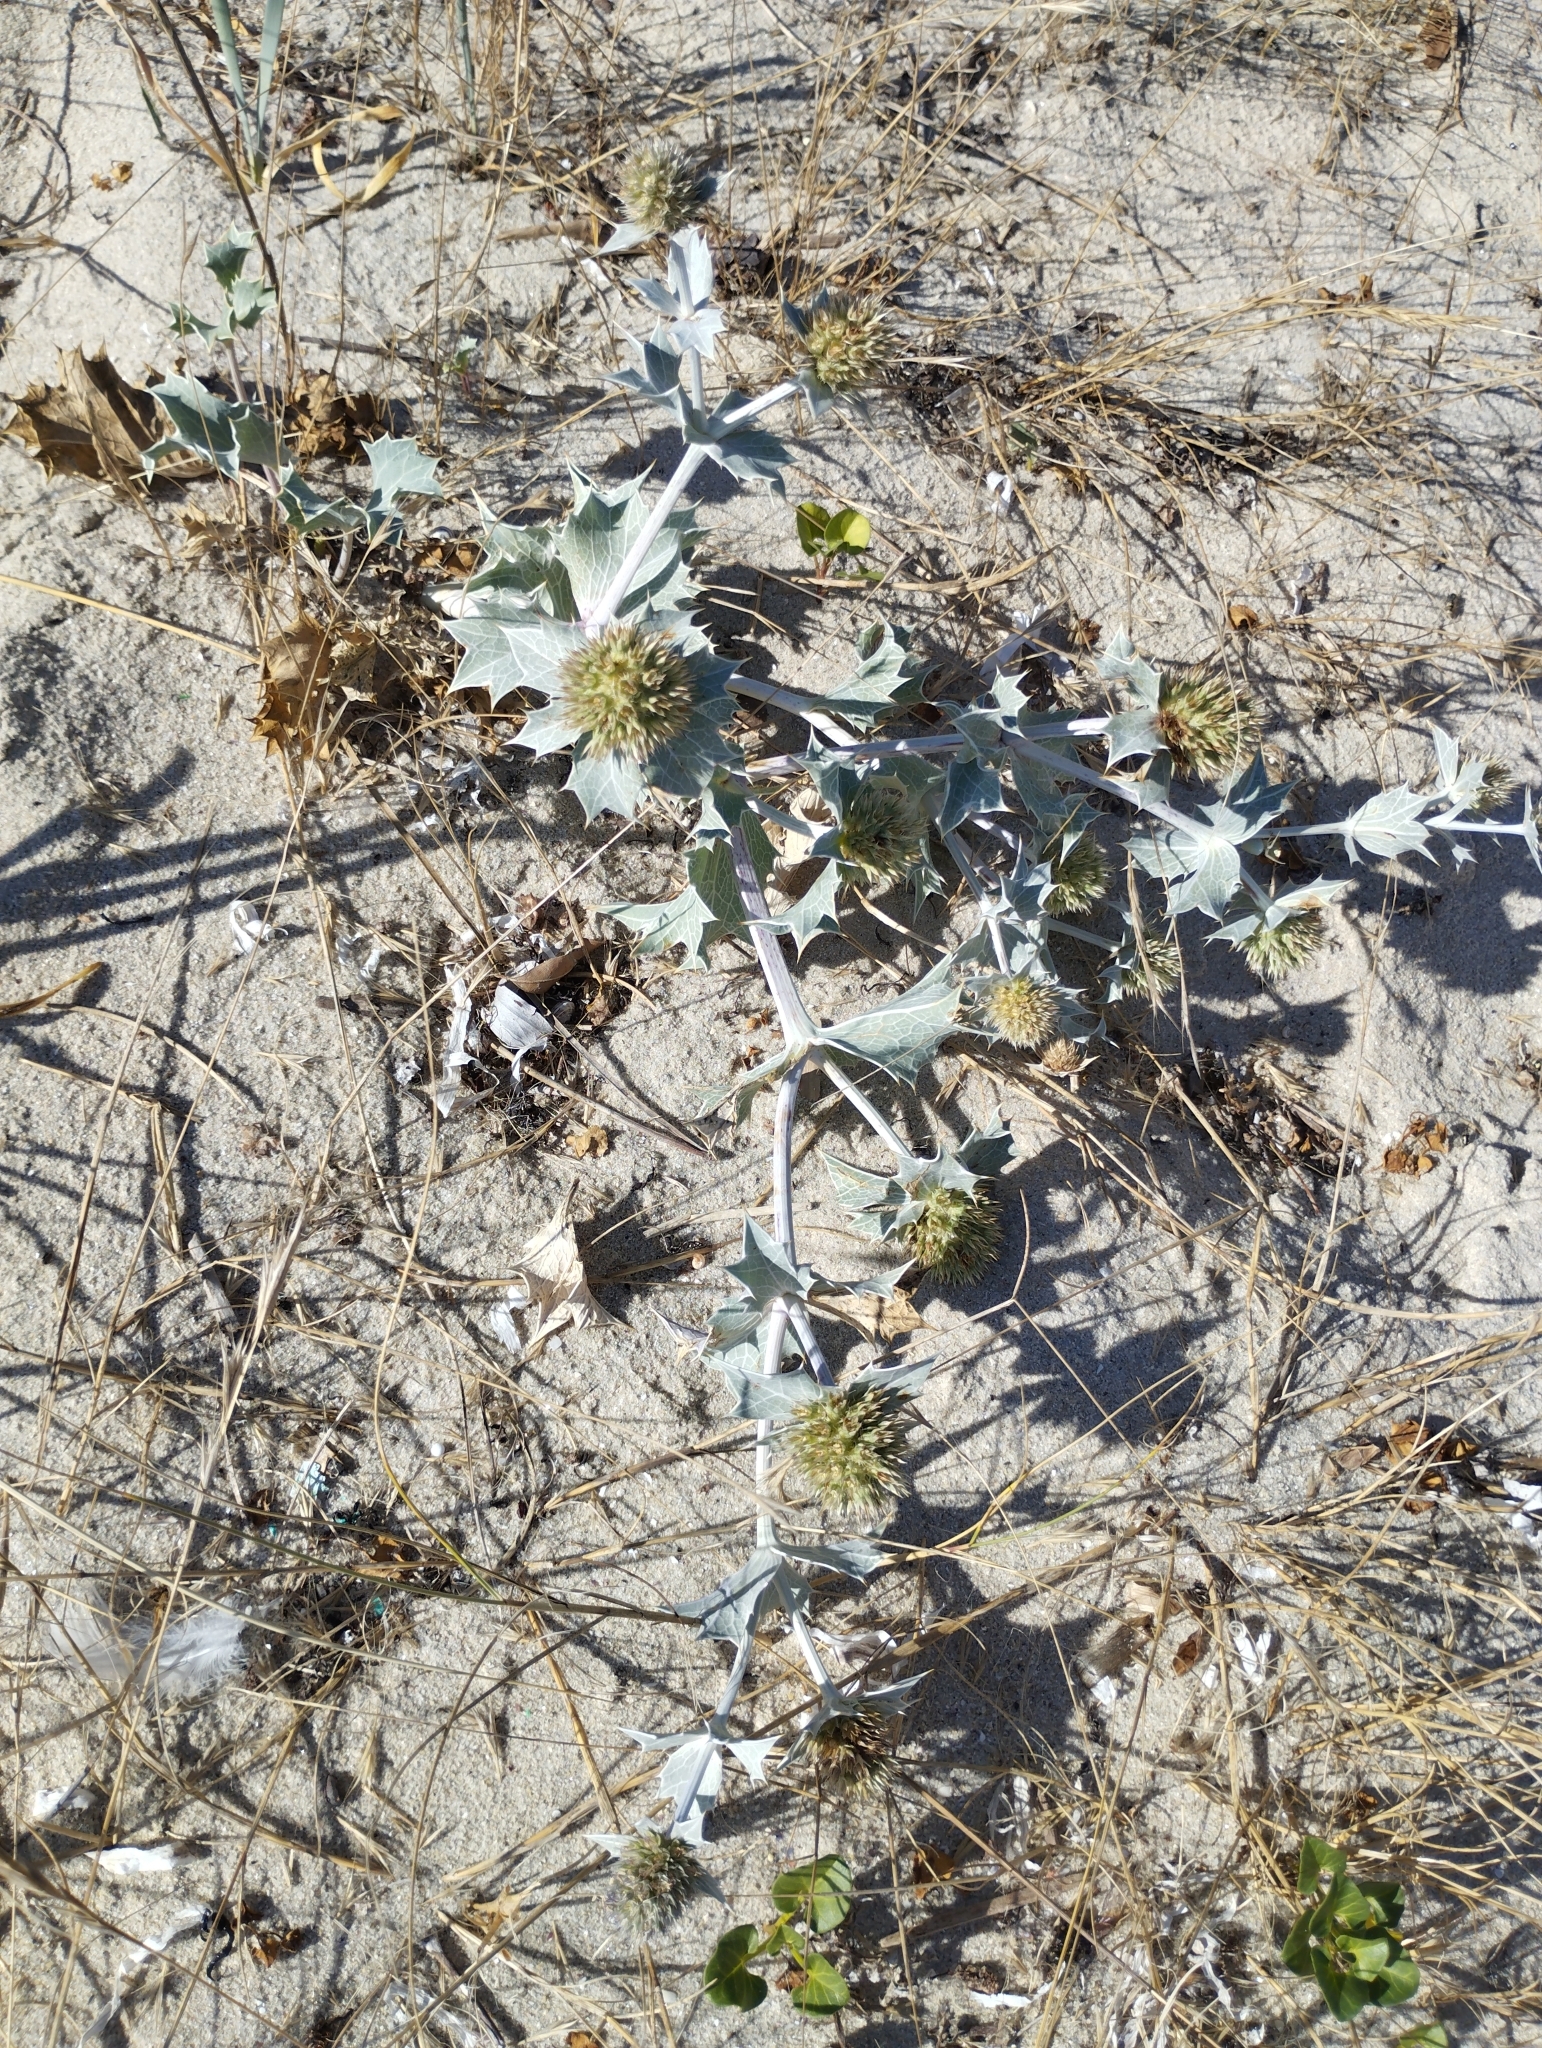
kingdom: Plantae
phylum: Tracheophyta
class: Magnoliopsida
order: Apiales
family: Apiaceae
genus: Eryngium
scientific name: Eryngium maritimum
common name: Sea-holly
